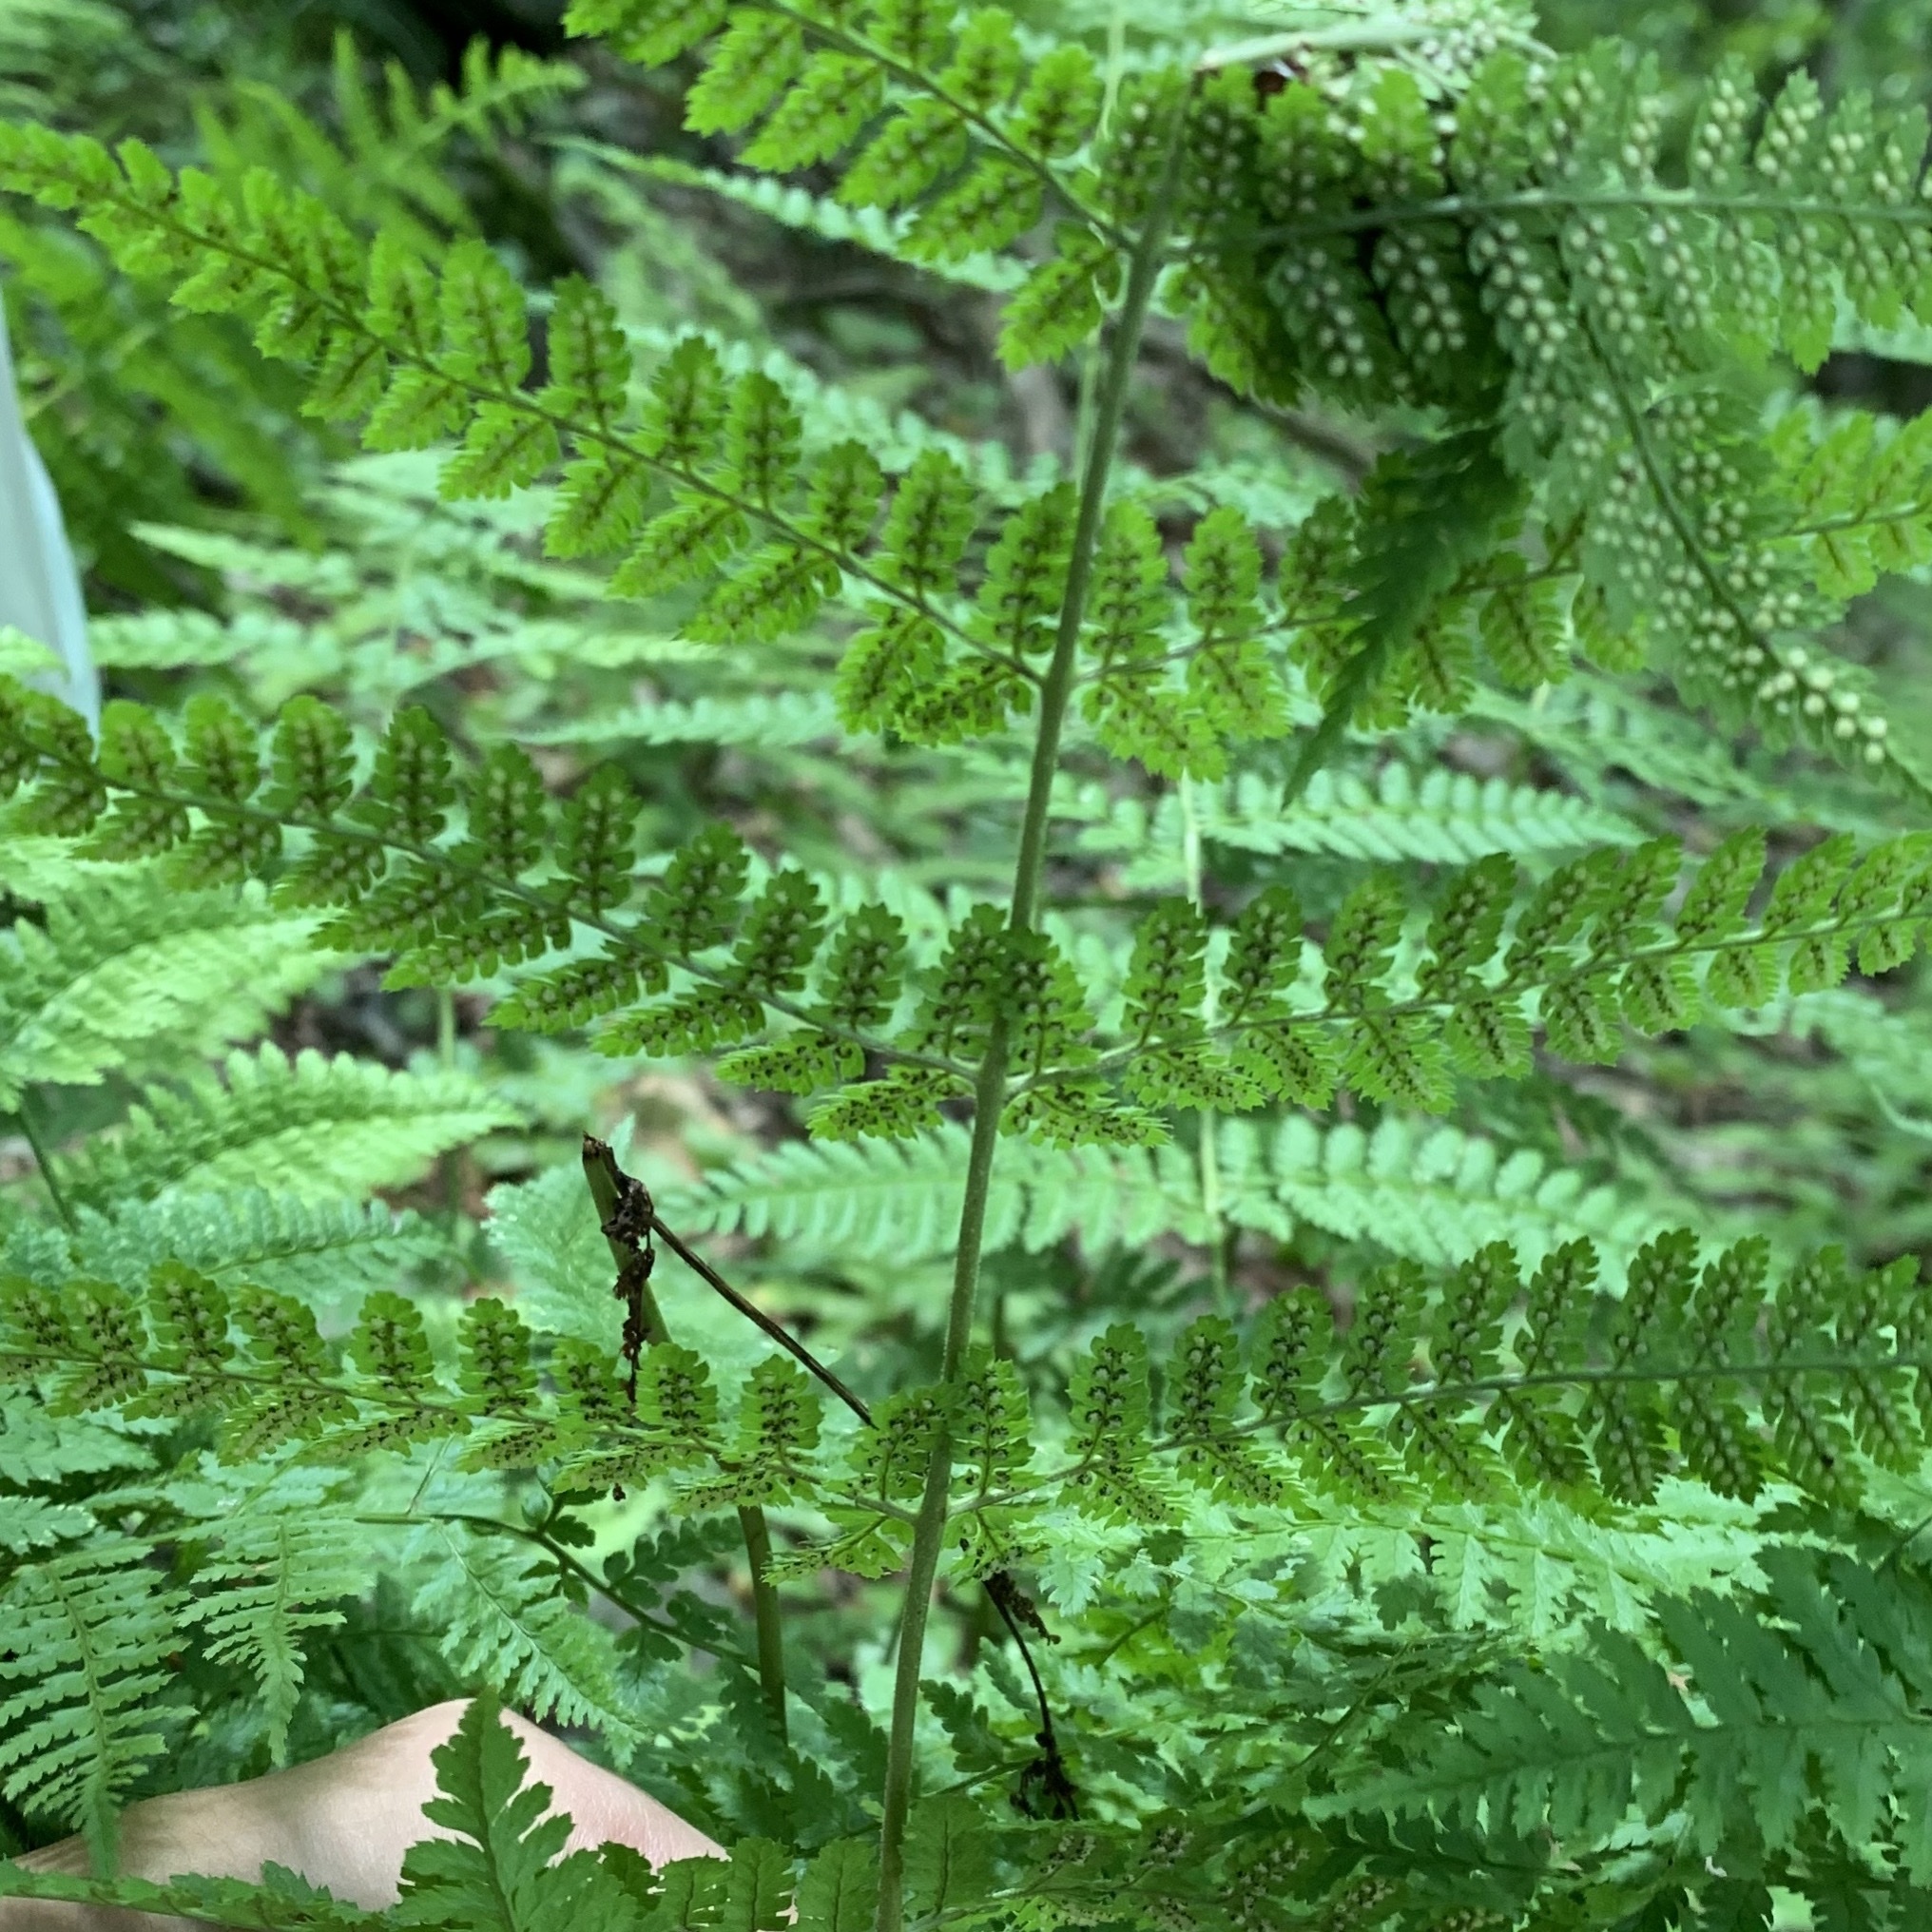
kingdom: Plantae
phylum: Tracheophyta
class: Polypodiopsida
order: Polypodiales
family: Dryopteridaceae
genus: Dryopteris
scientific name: Dryopteris intermedia
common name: Evergreen wood fern
